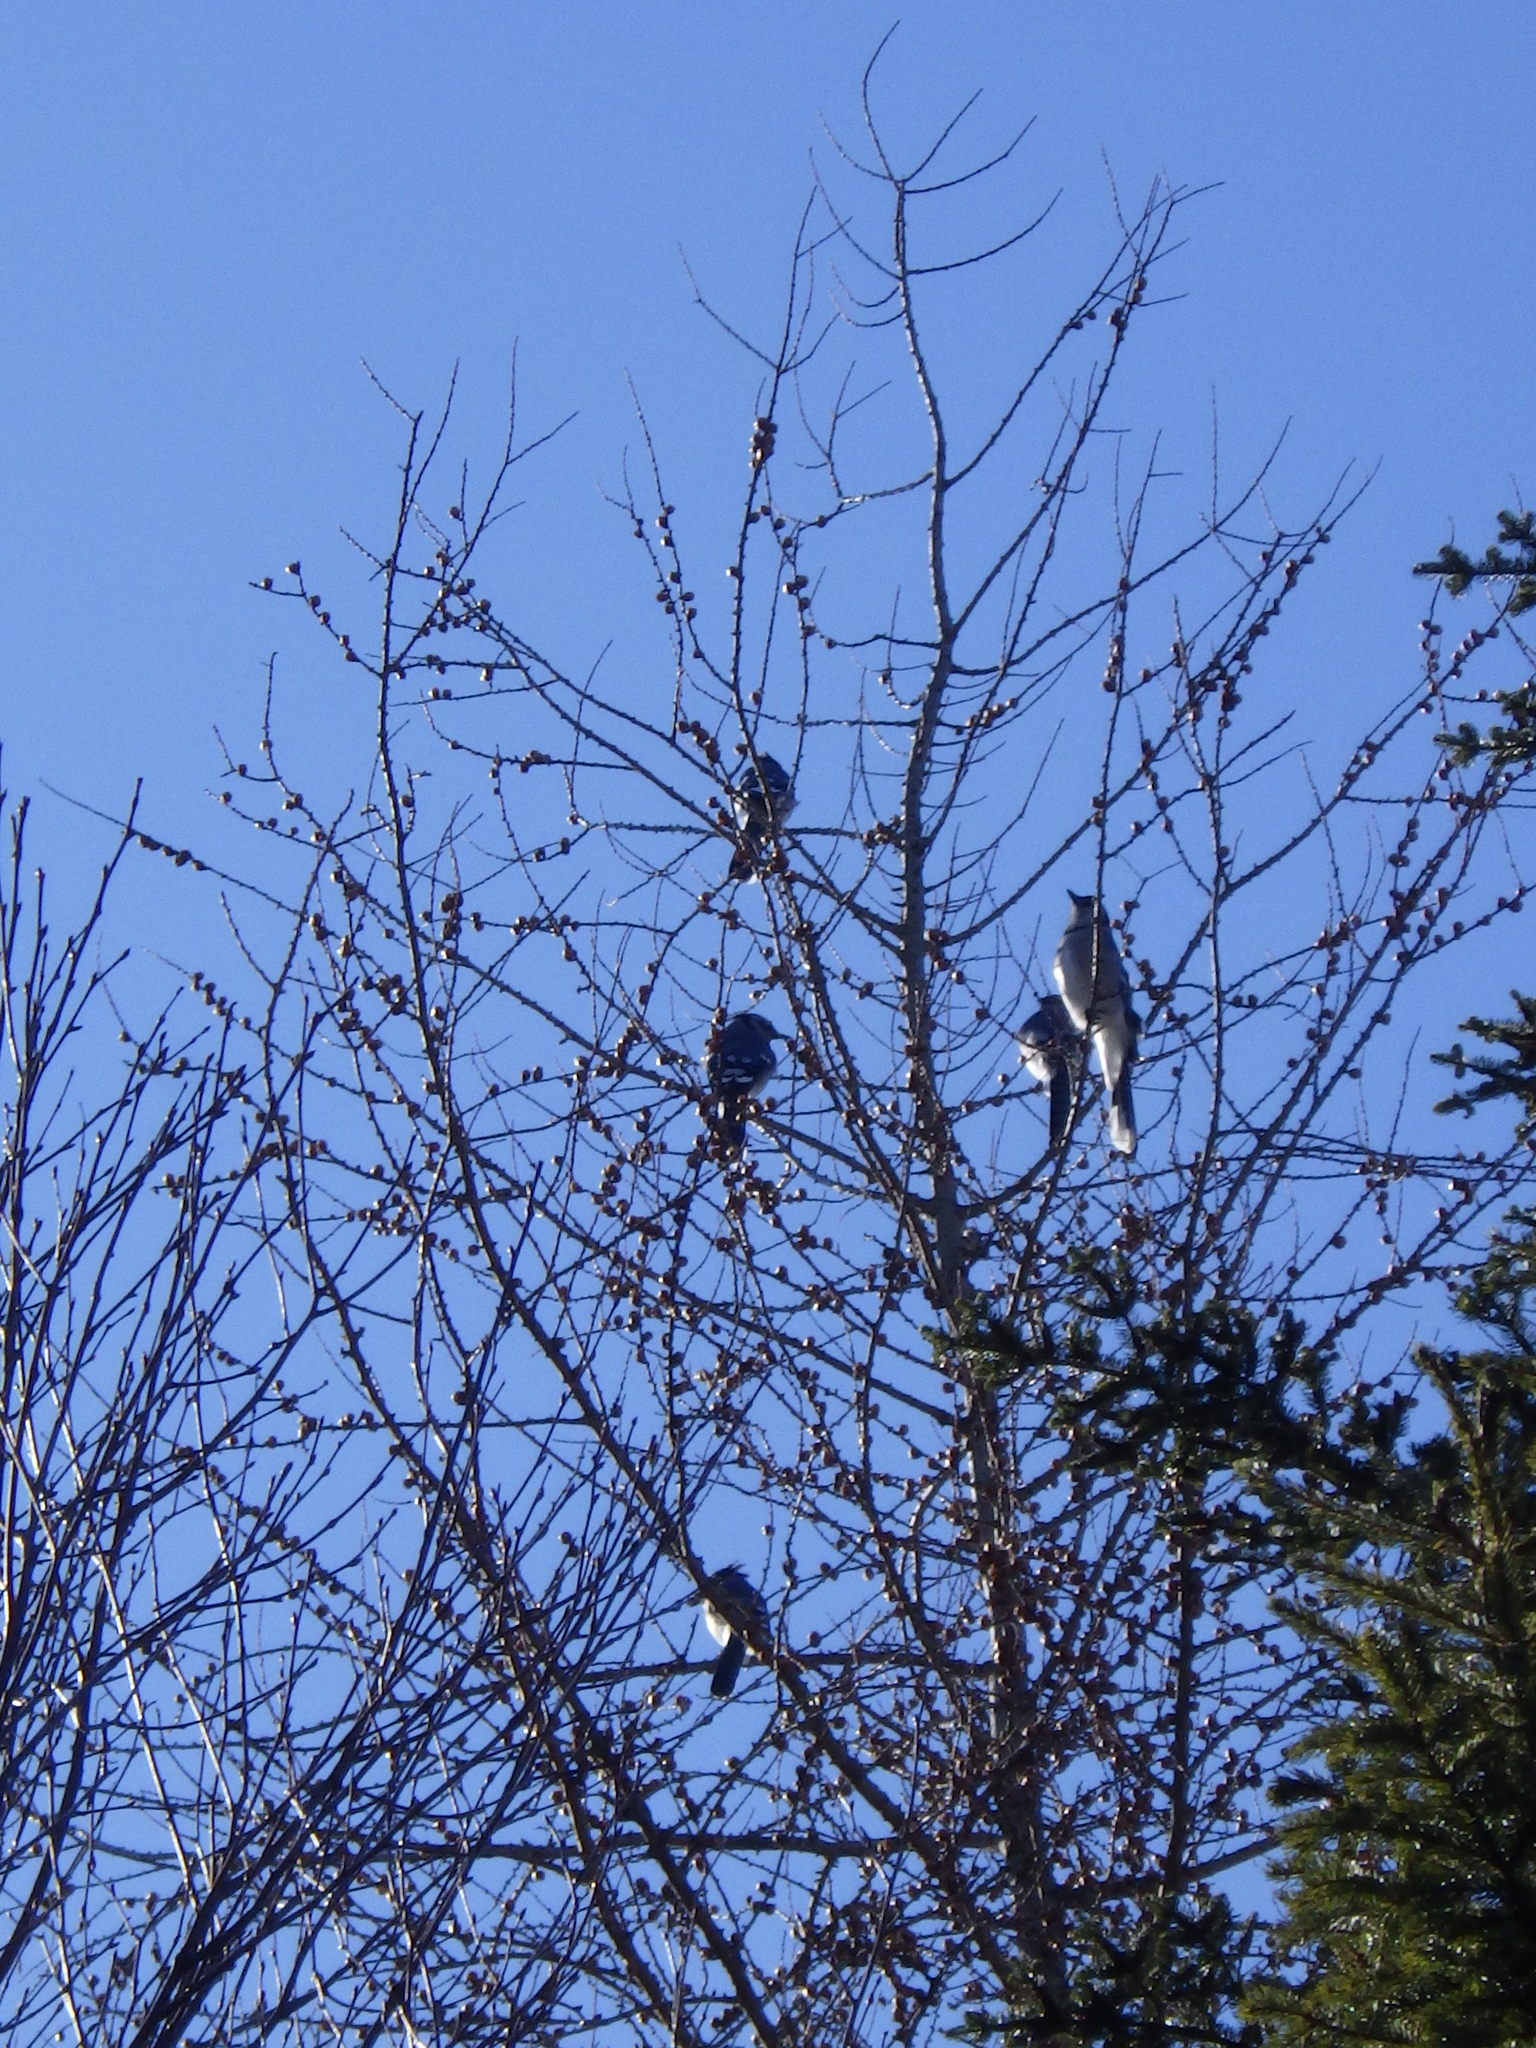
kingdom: Animalia
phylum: Chordata
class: Aves
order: Passeriformes
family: Corvidae
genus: Cyanocitta
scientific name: Cyanocitta cristata
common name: Blue jay
